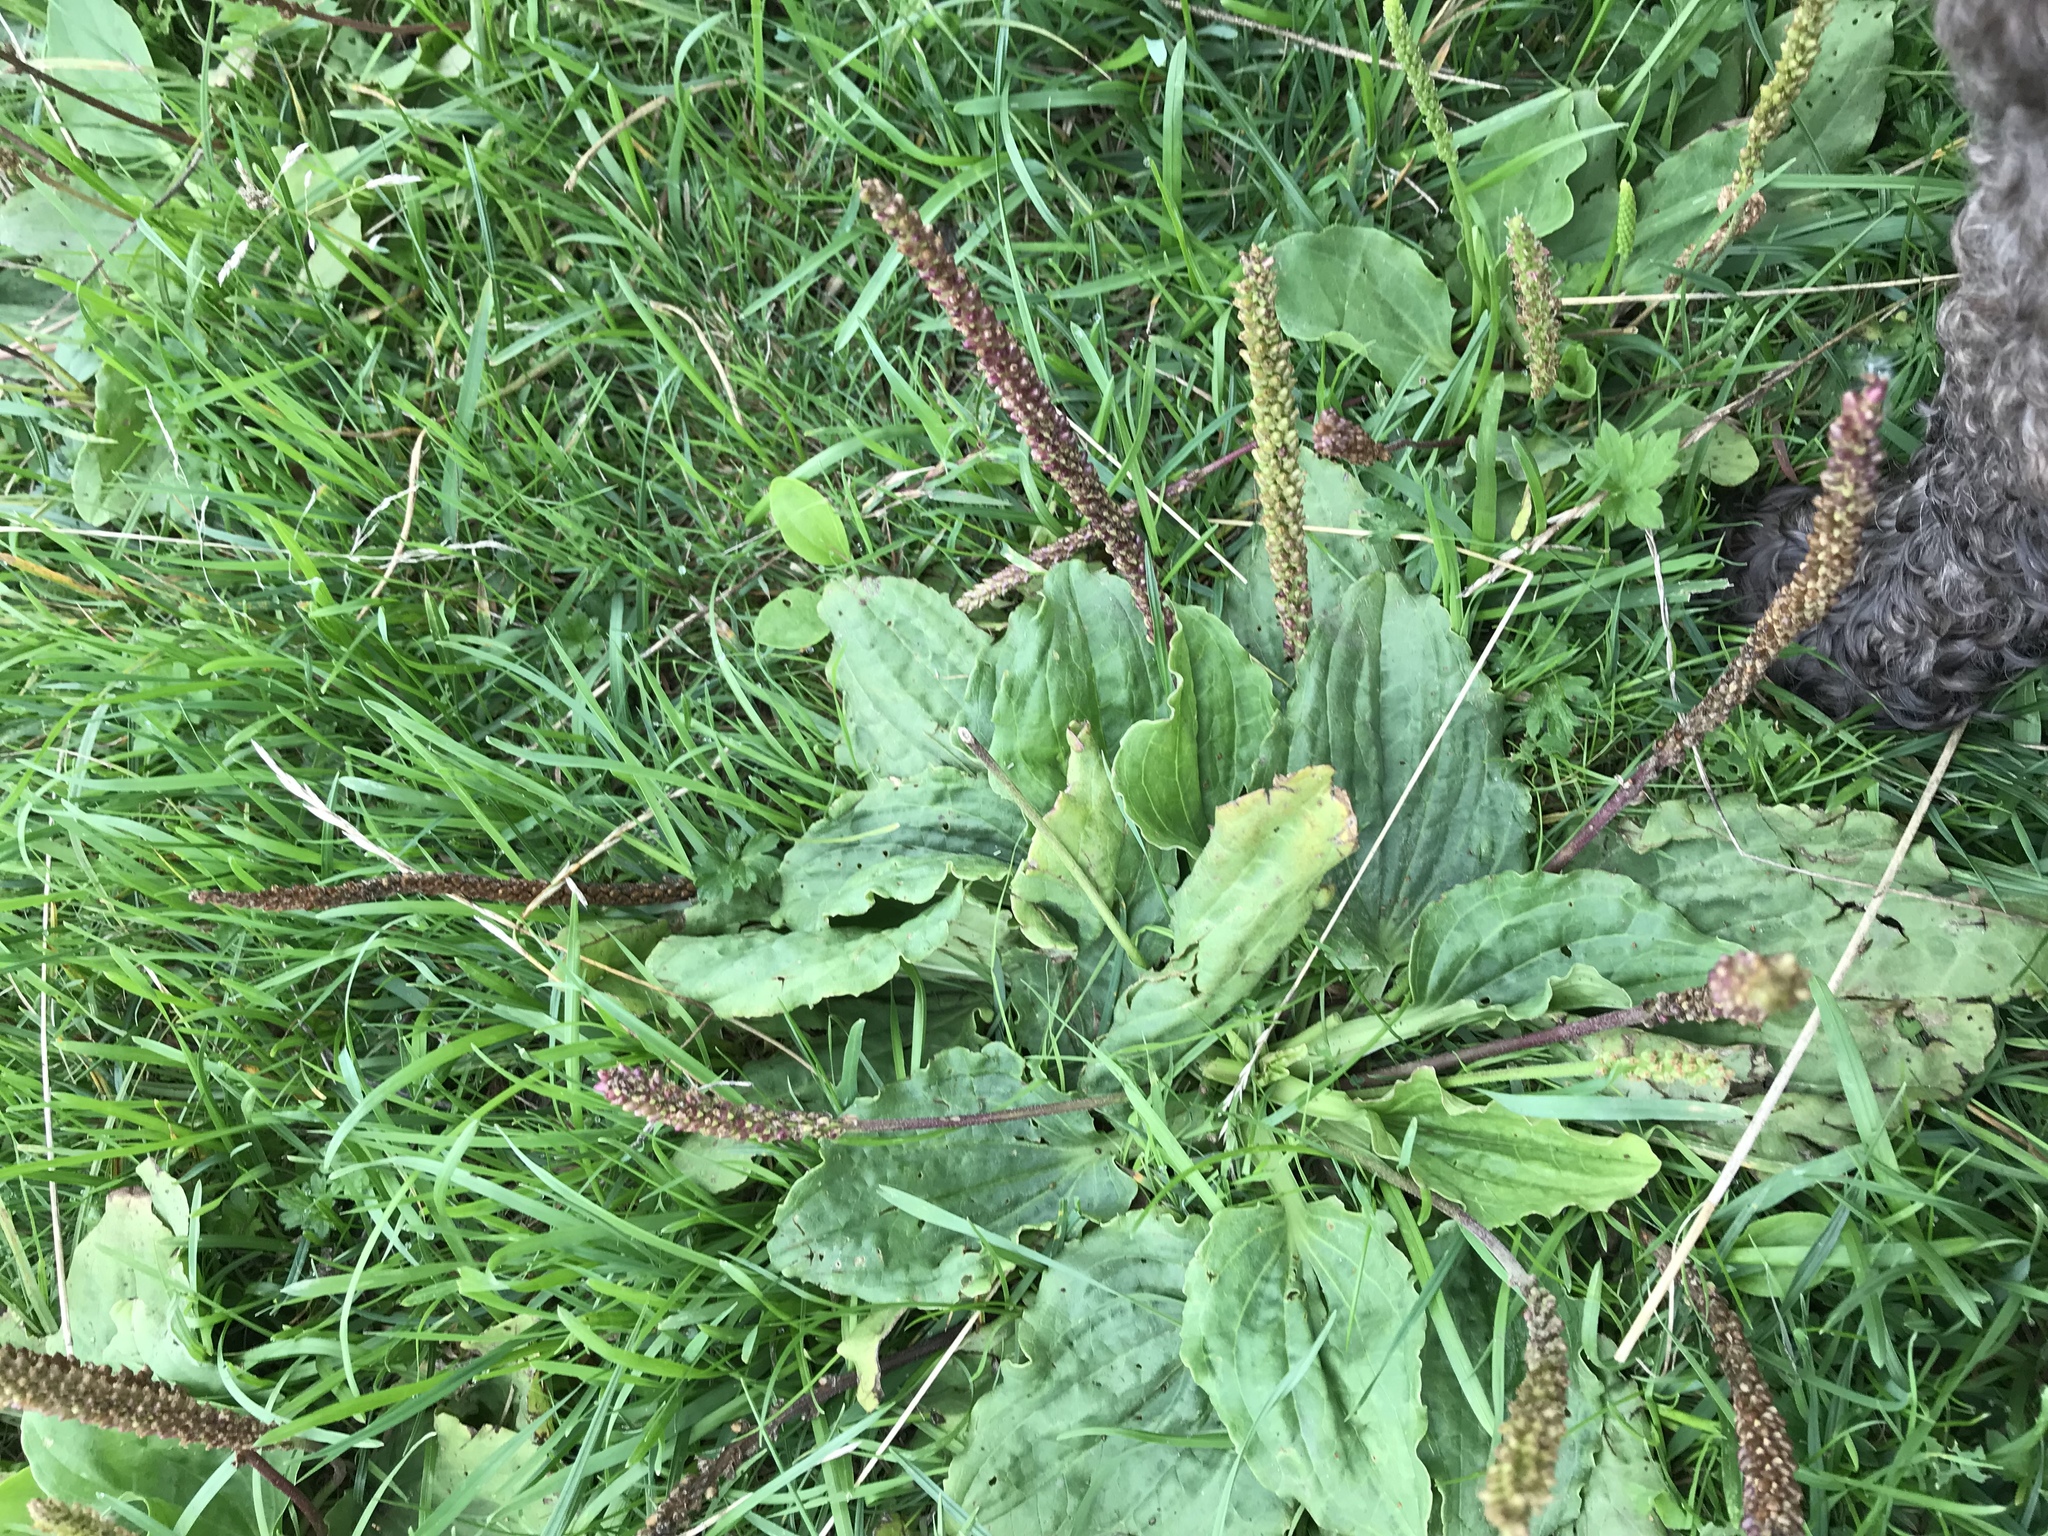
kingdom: Plantae
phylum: Tracheophyta
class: Magnoliopsida
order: Lamiales
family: Plantaginaceae
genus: Plantago
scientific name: Plantago major
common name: Common plantain
